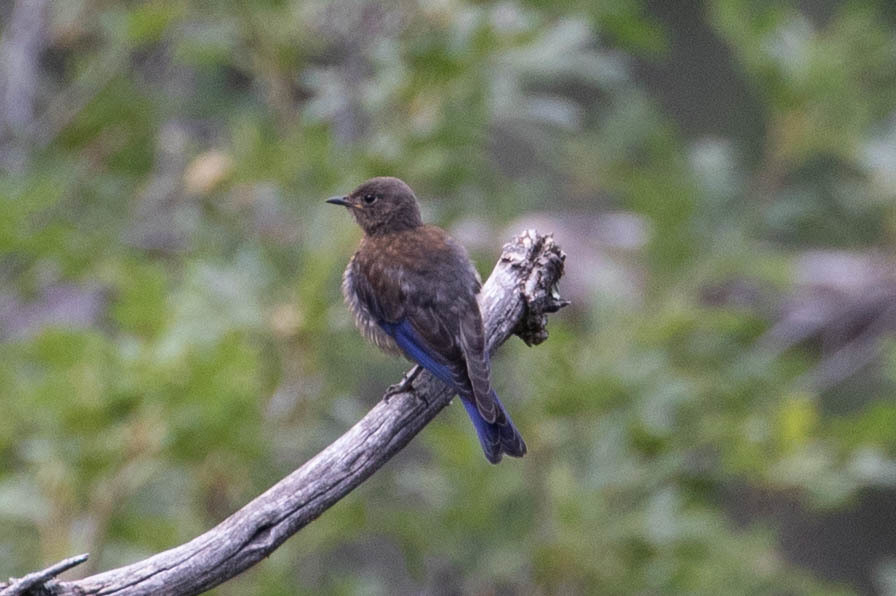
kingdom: Animalia
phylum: Chordata
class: Aves
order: Passeriformes
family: Turdidae
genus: Sialia
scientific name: Sialia mexicana
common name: Western bluebird
